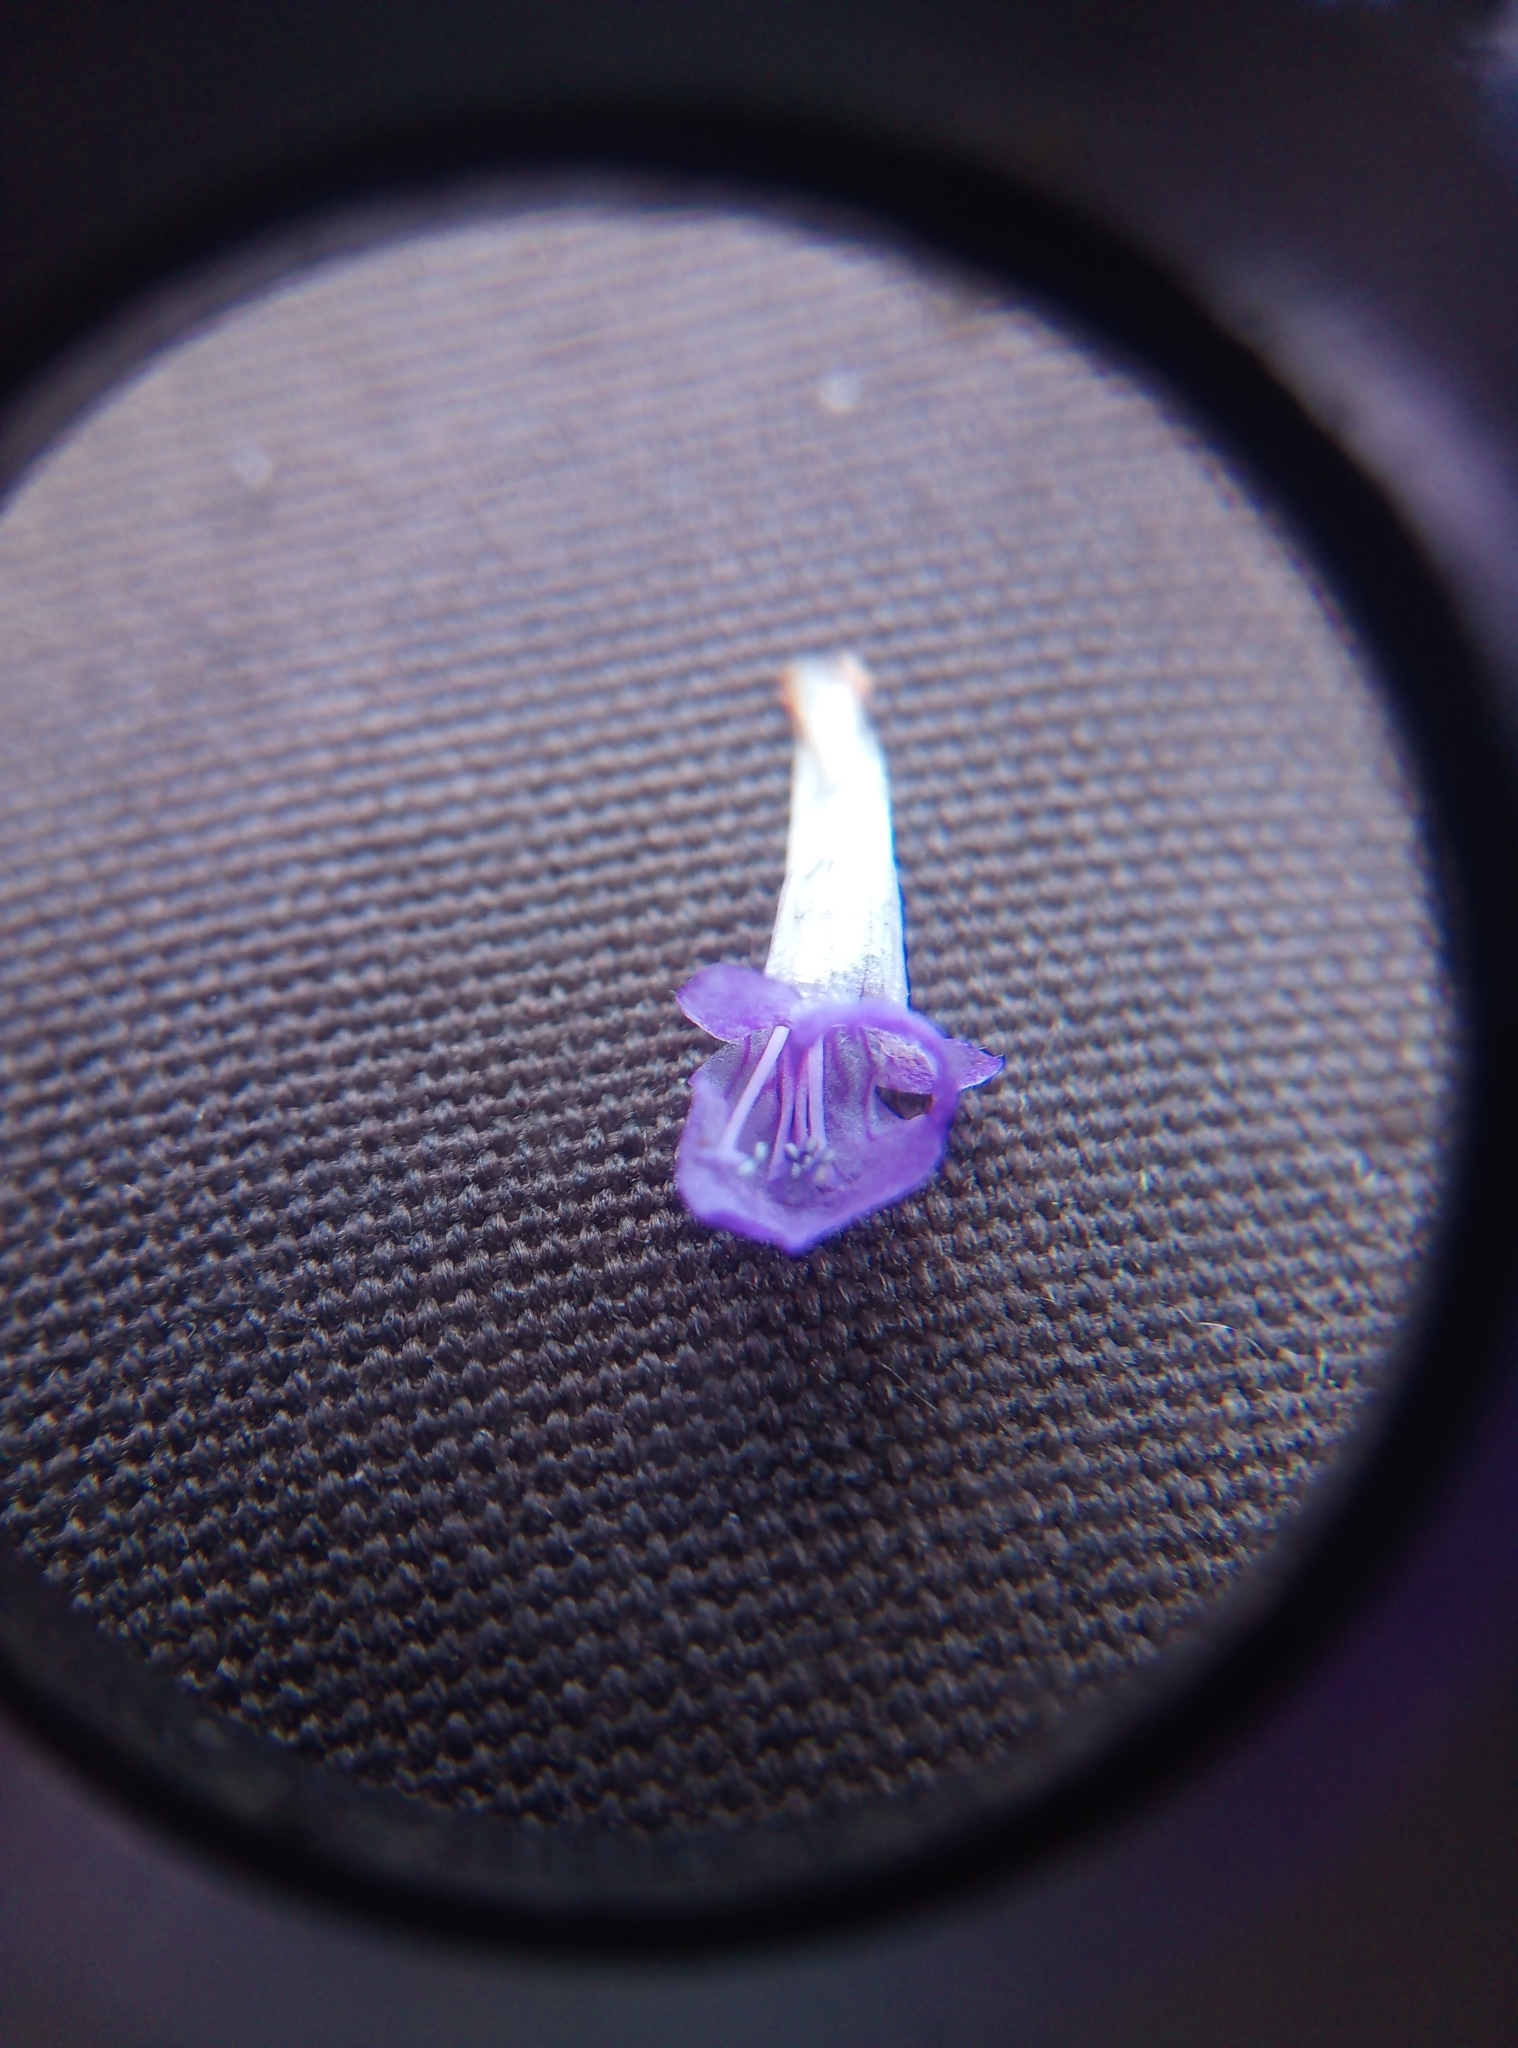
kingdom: Plantae
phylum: Tracheophyta
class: Magnoliopsida
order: Lamiales
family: Lamiaceae
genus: Prunella
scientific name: Prunella vulgaris
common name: Heal-all
